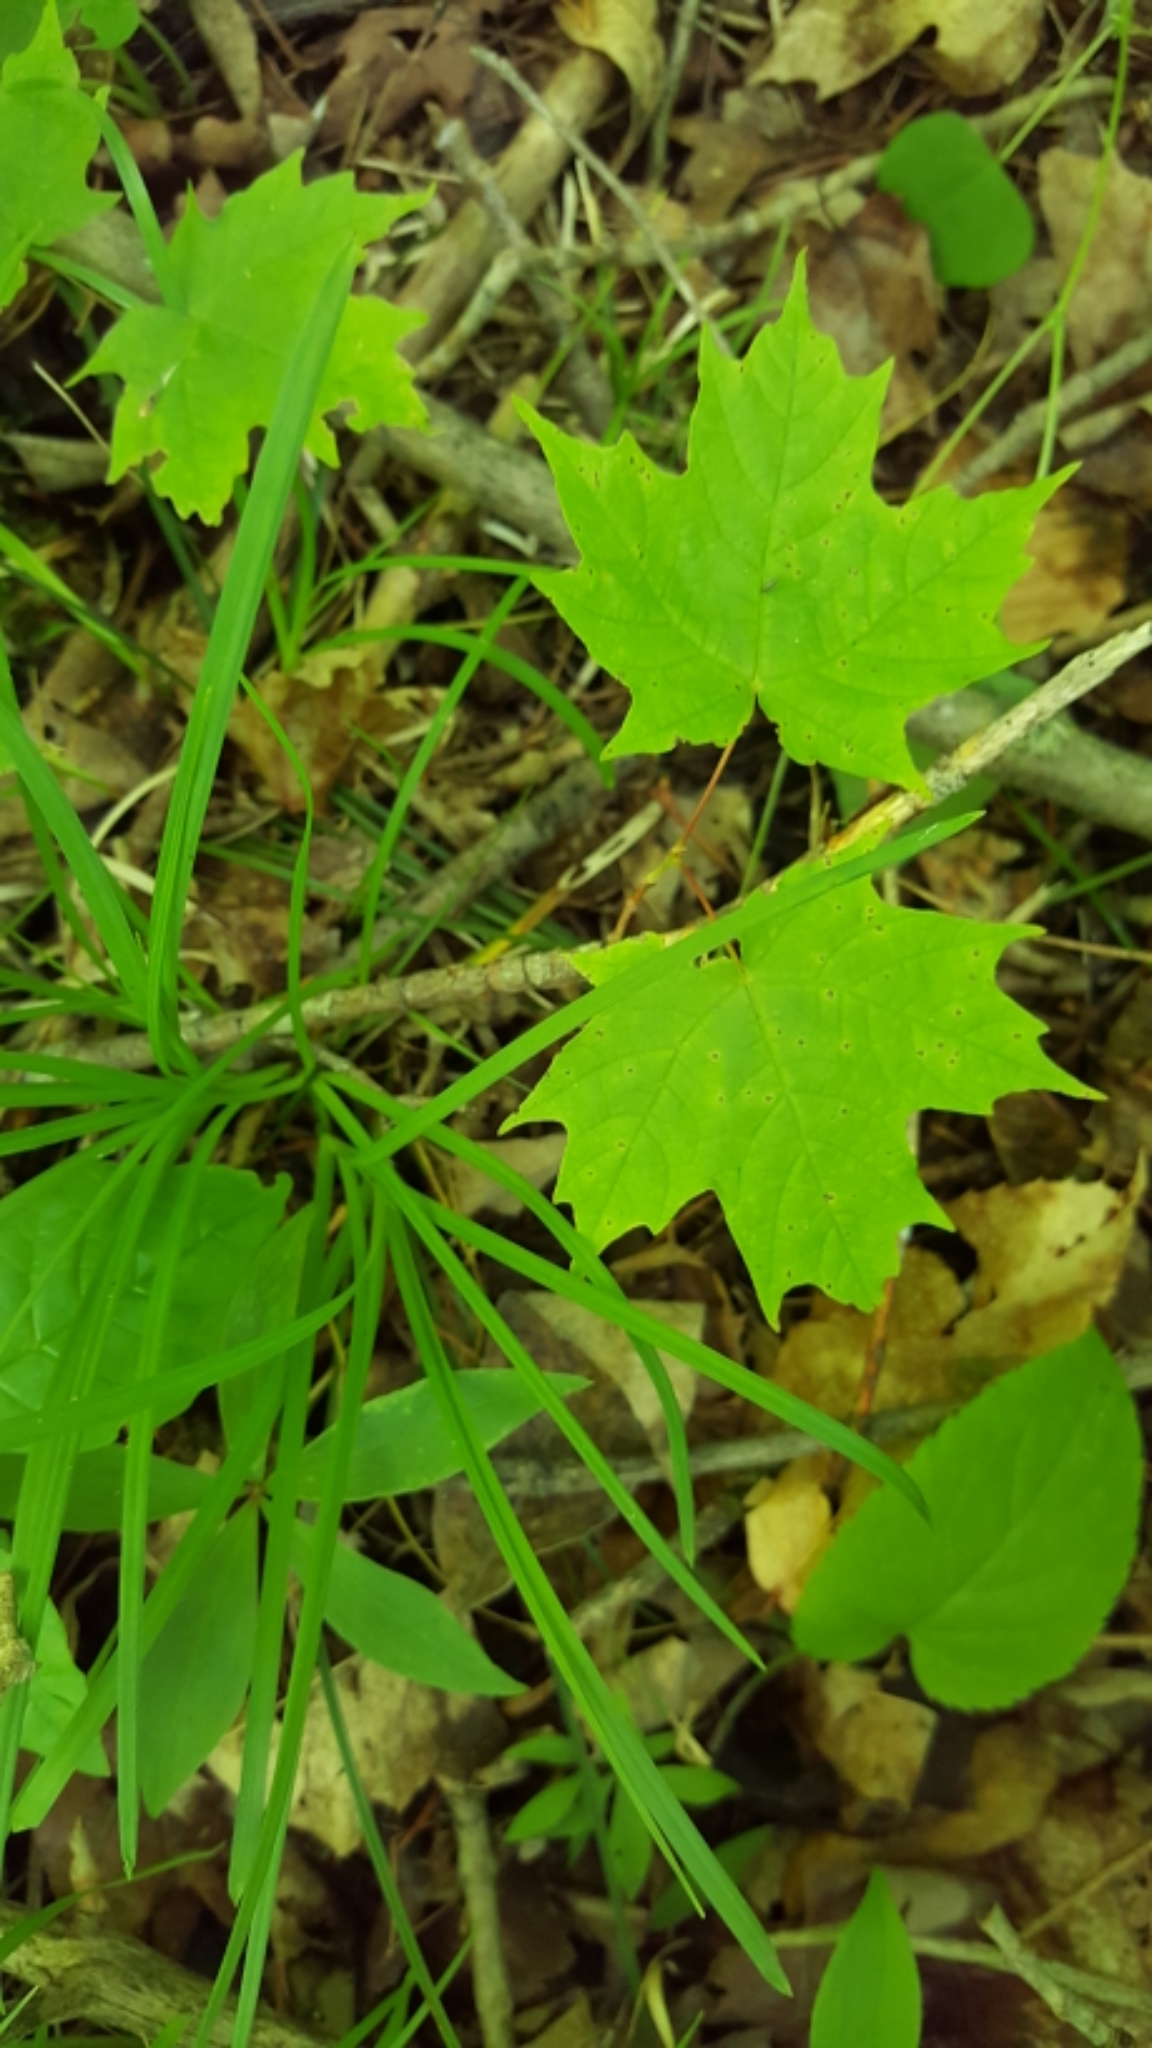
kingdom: Plantae
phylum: Tracheophyta
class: Magnoliopsida
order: Sapindales
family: Sapindaceae
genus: Acer
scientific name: Acer saccharum
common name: Sugar maple
